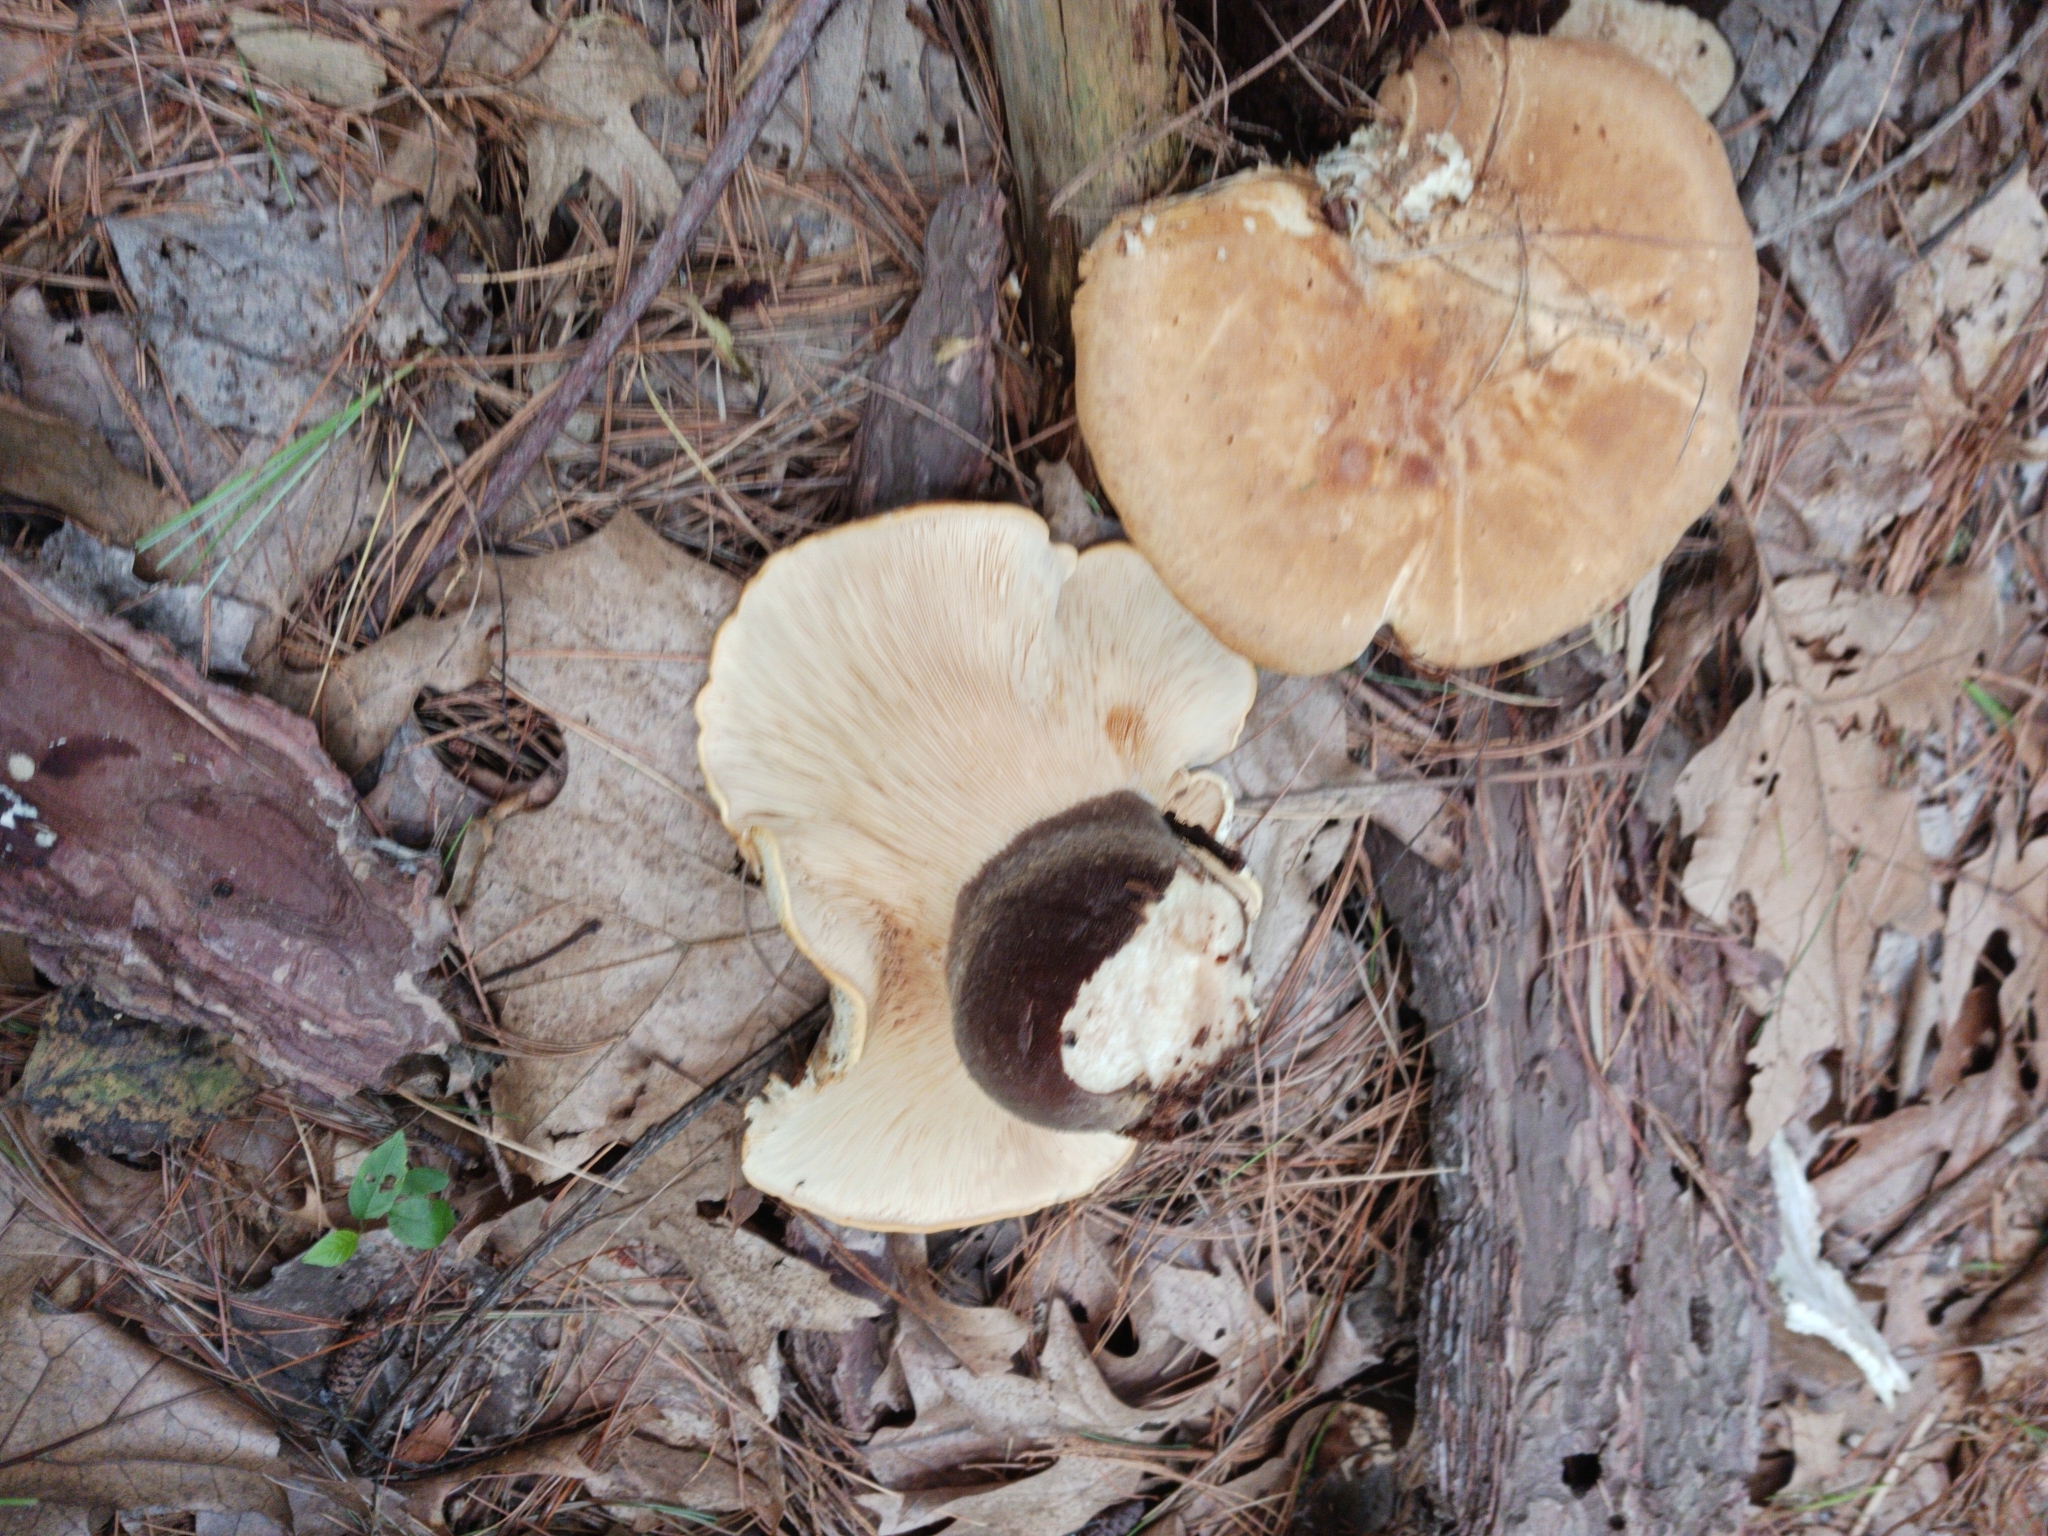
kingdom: Fungi
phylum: Basidiomycota
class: Agaricomycetes
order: Boletales
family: Tapinellaceae
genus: Tapinella
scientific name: Tapinella atrotomentosa
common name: Velvet rollrim
